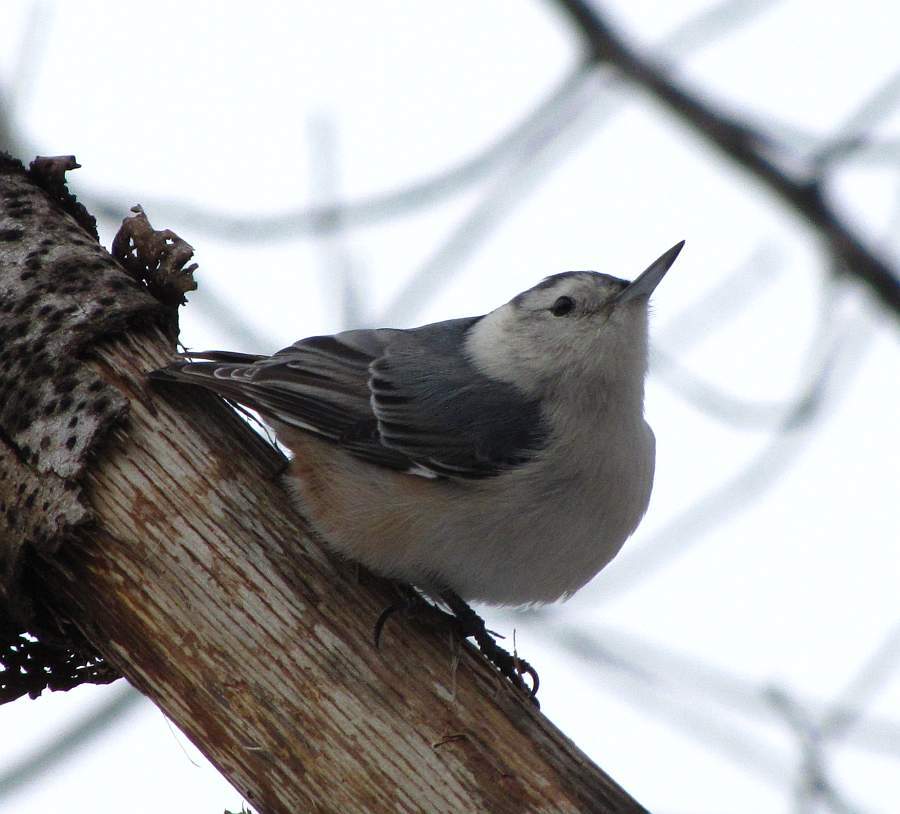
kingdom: Animalia
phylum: Chordata
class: Aves
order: Passeriformes
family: Sittidae
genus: Sitta
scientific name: Sitta carolinensis
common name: White-breasted nuthatch
